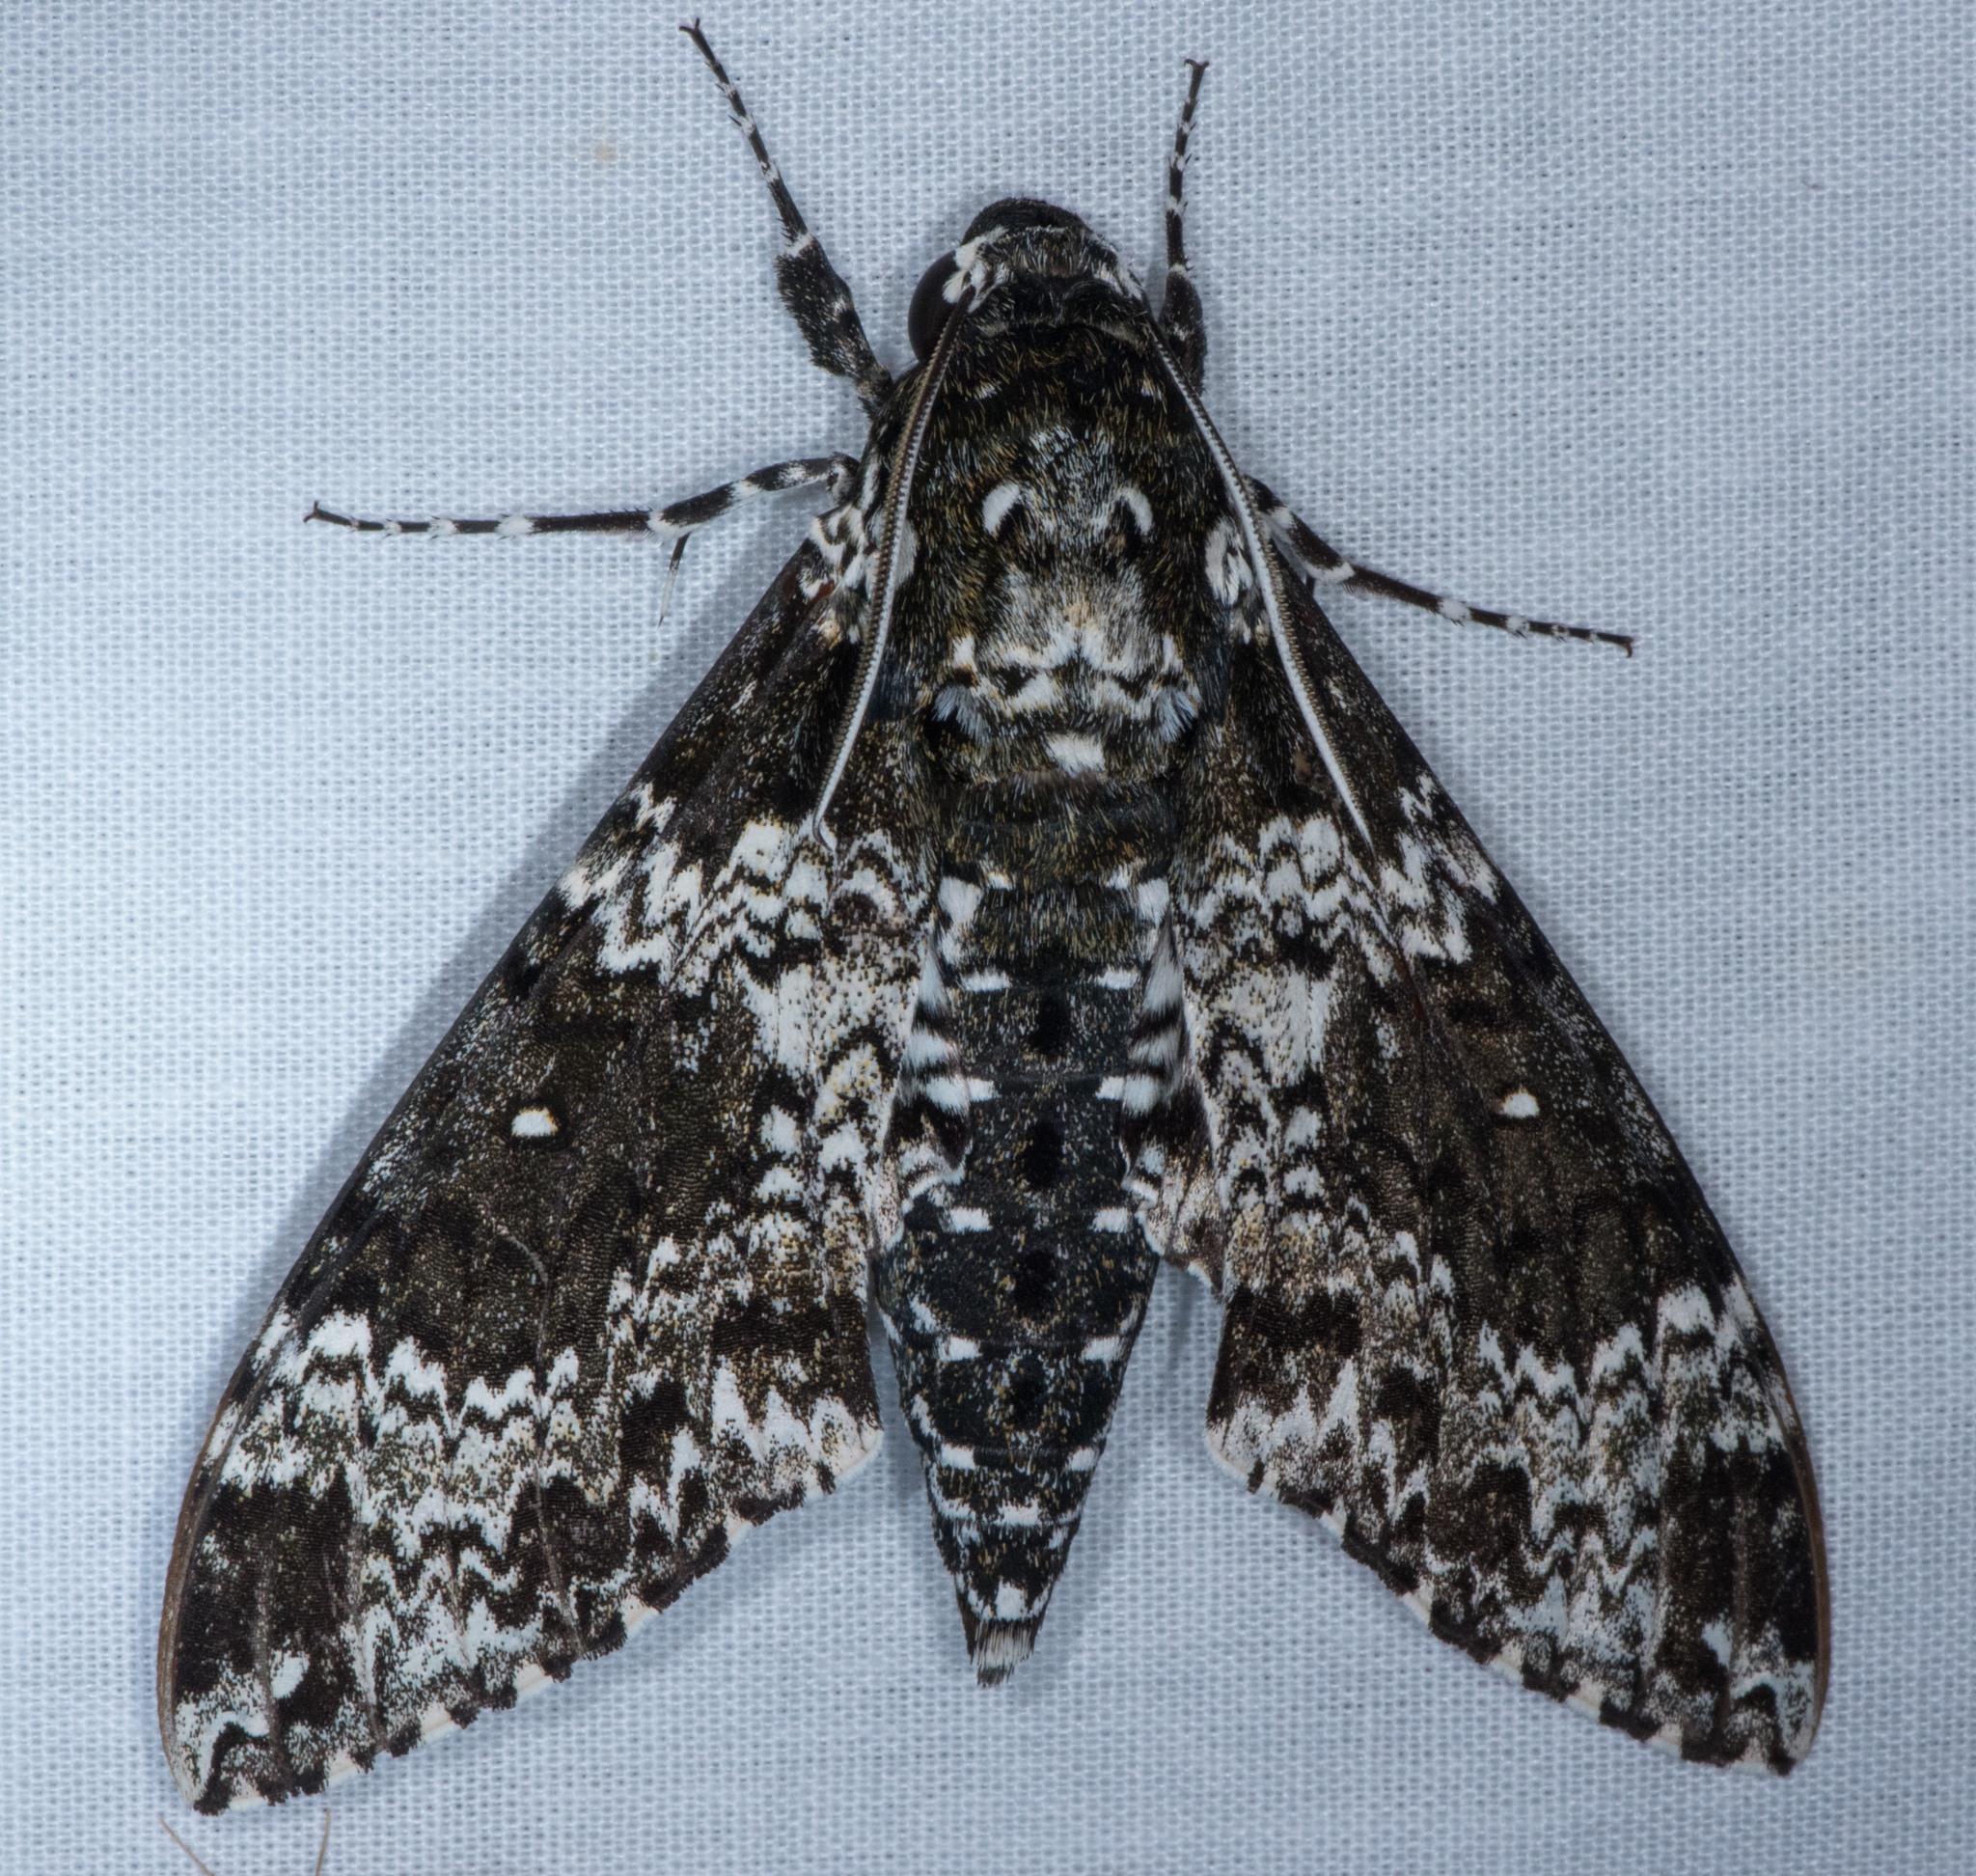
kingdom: Animalia
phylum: Arthropoda
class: Insecta
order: Lepidoptera
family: Sphingidae
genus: Manduca
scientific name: Manduca rustica
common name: Rustic sphinx
